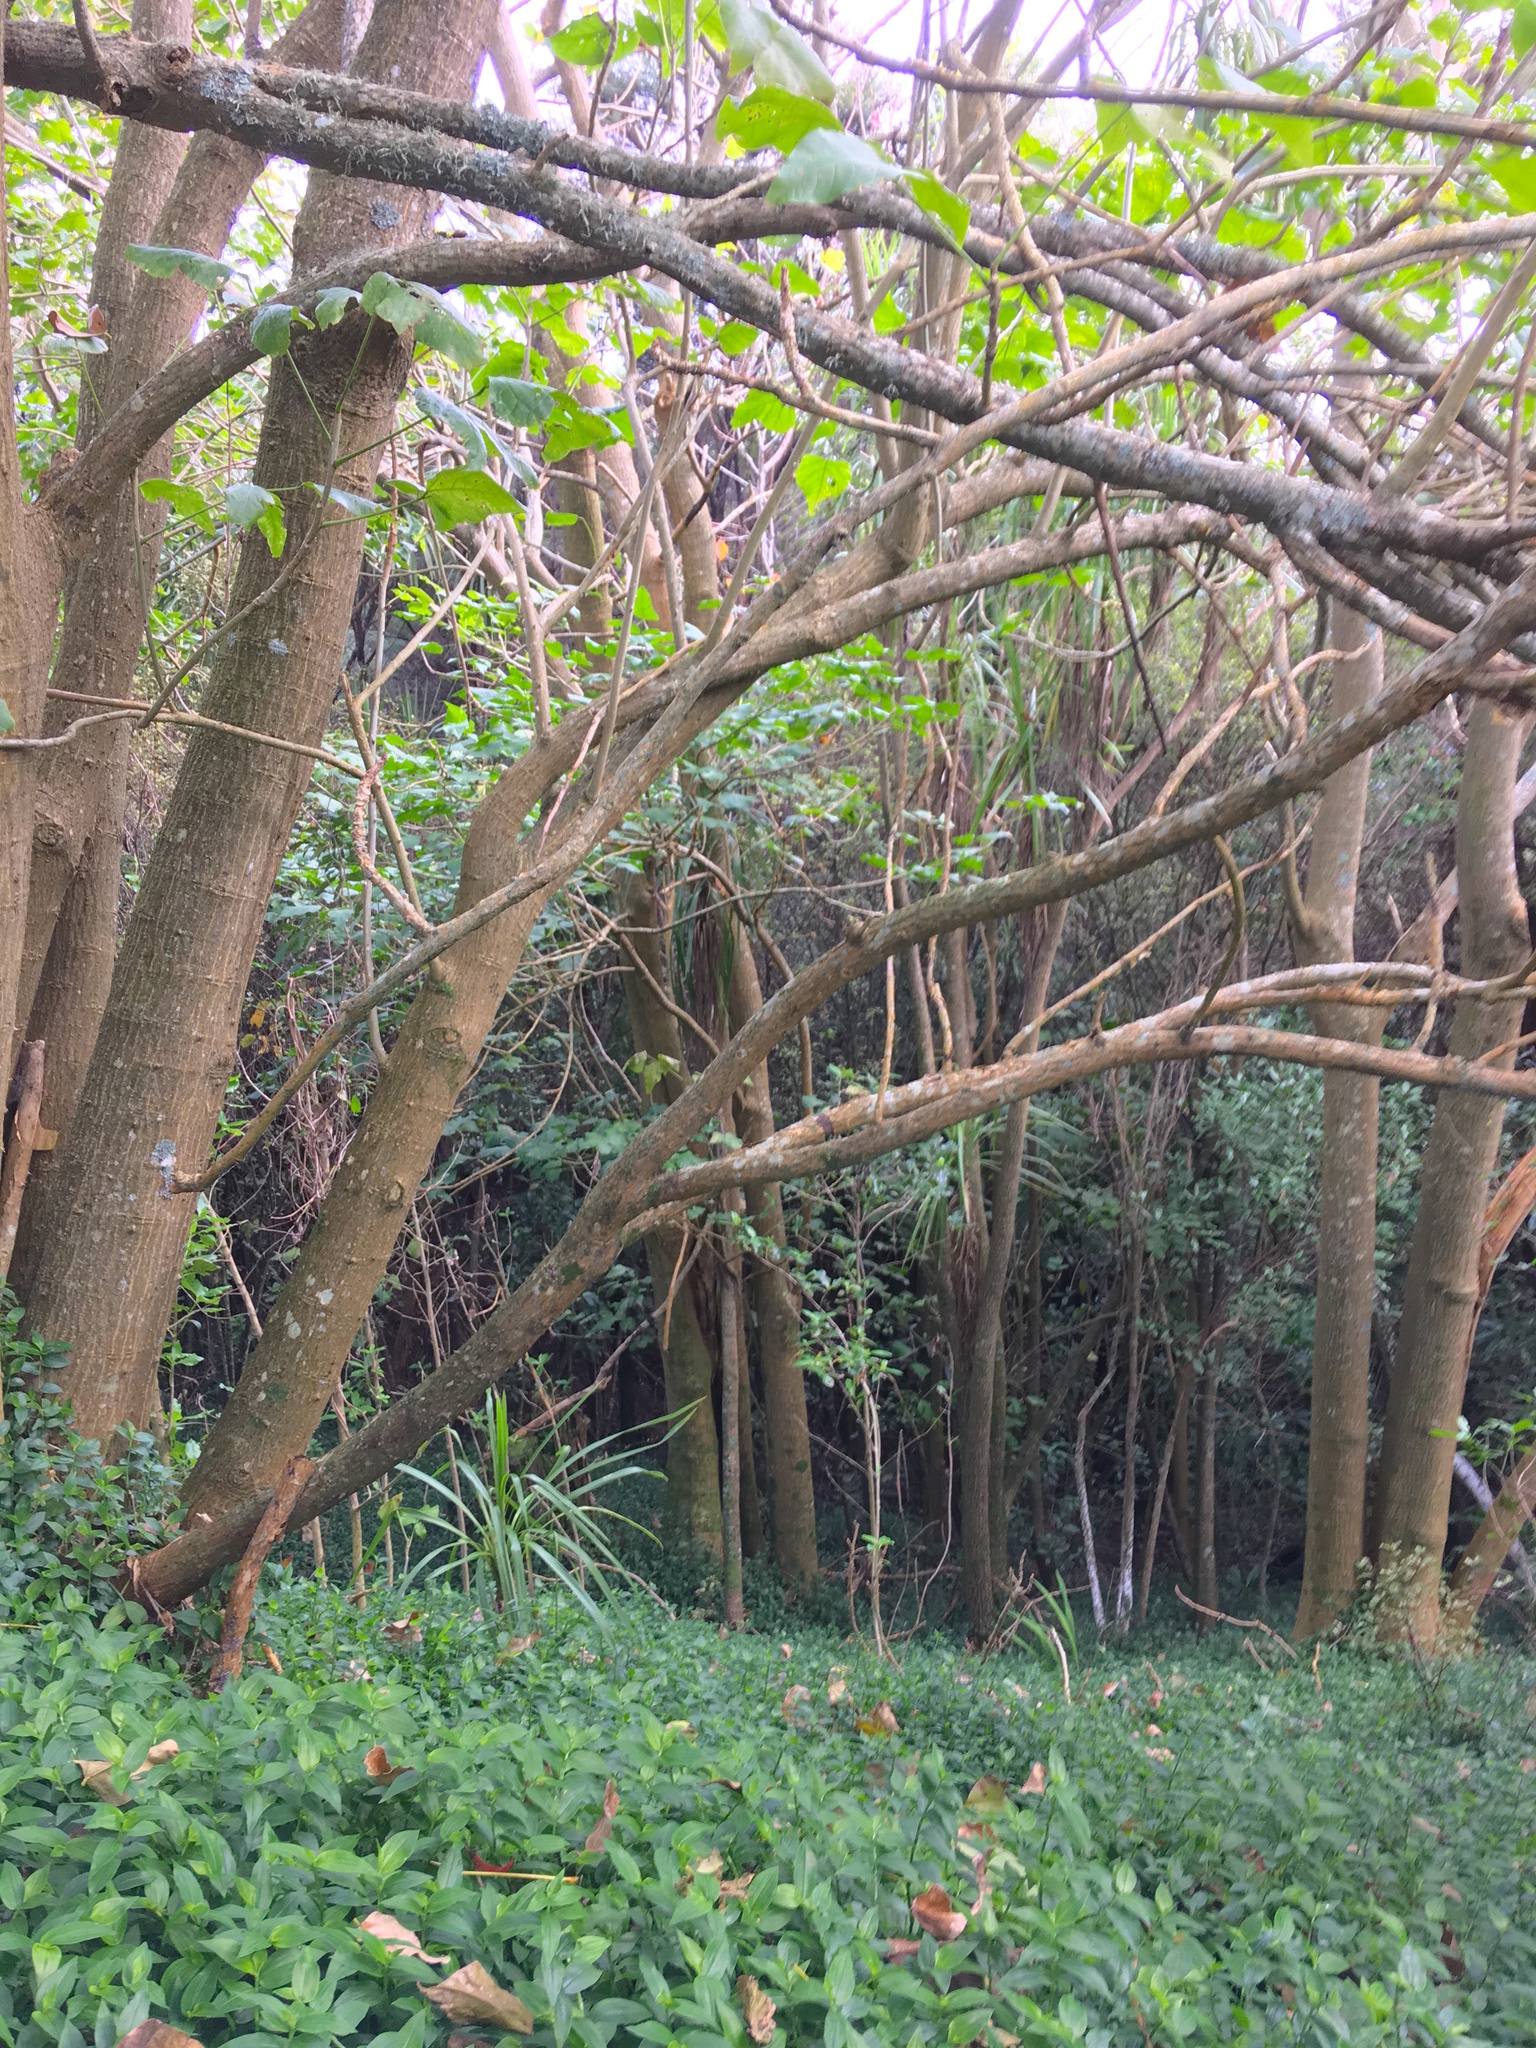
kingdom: Plantae
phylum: Tracheophyta
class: Liliopsida
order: Commelinales
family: Commelinaceae
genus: Tradescantia
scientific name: Tradescantia fluminensis
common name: Wandering-jew
